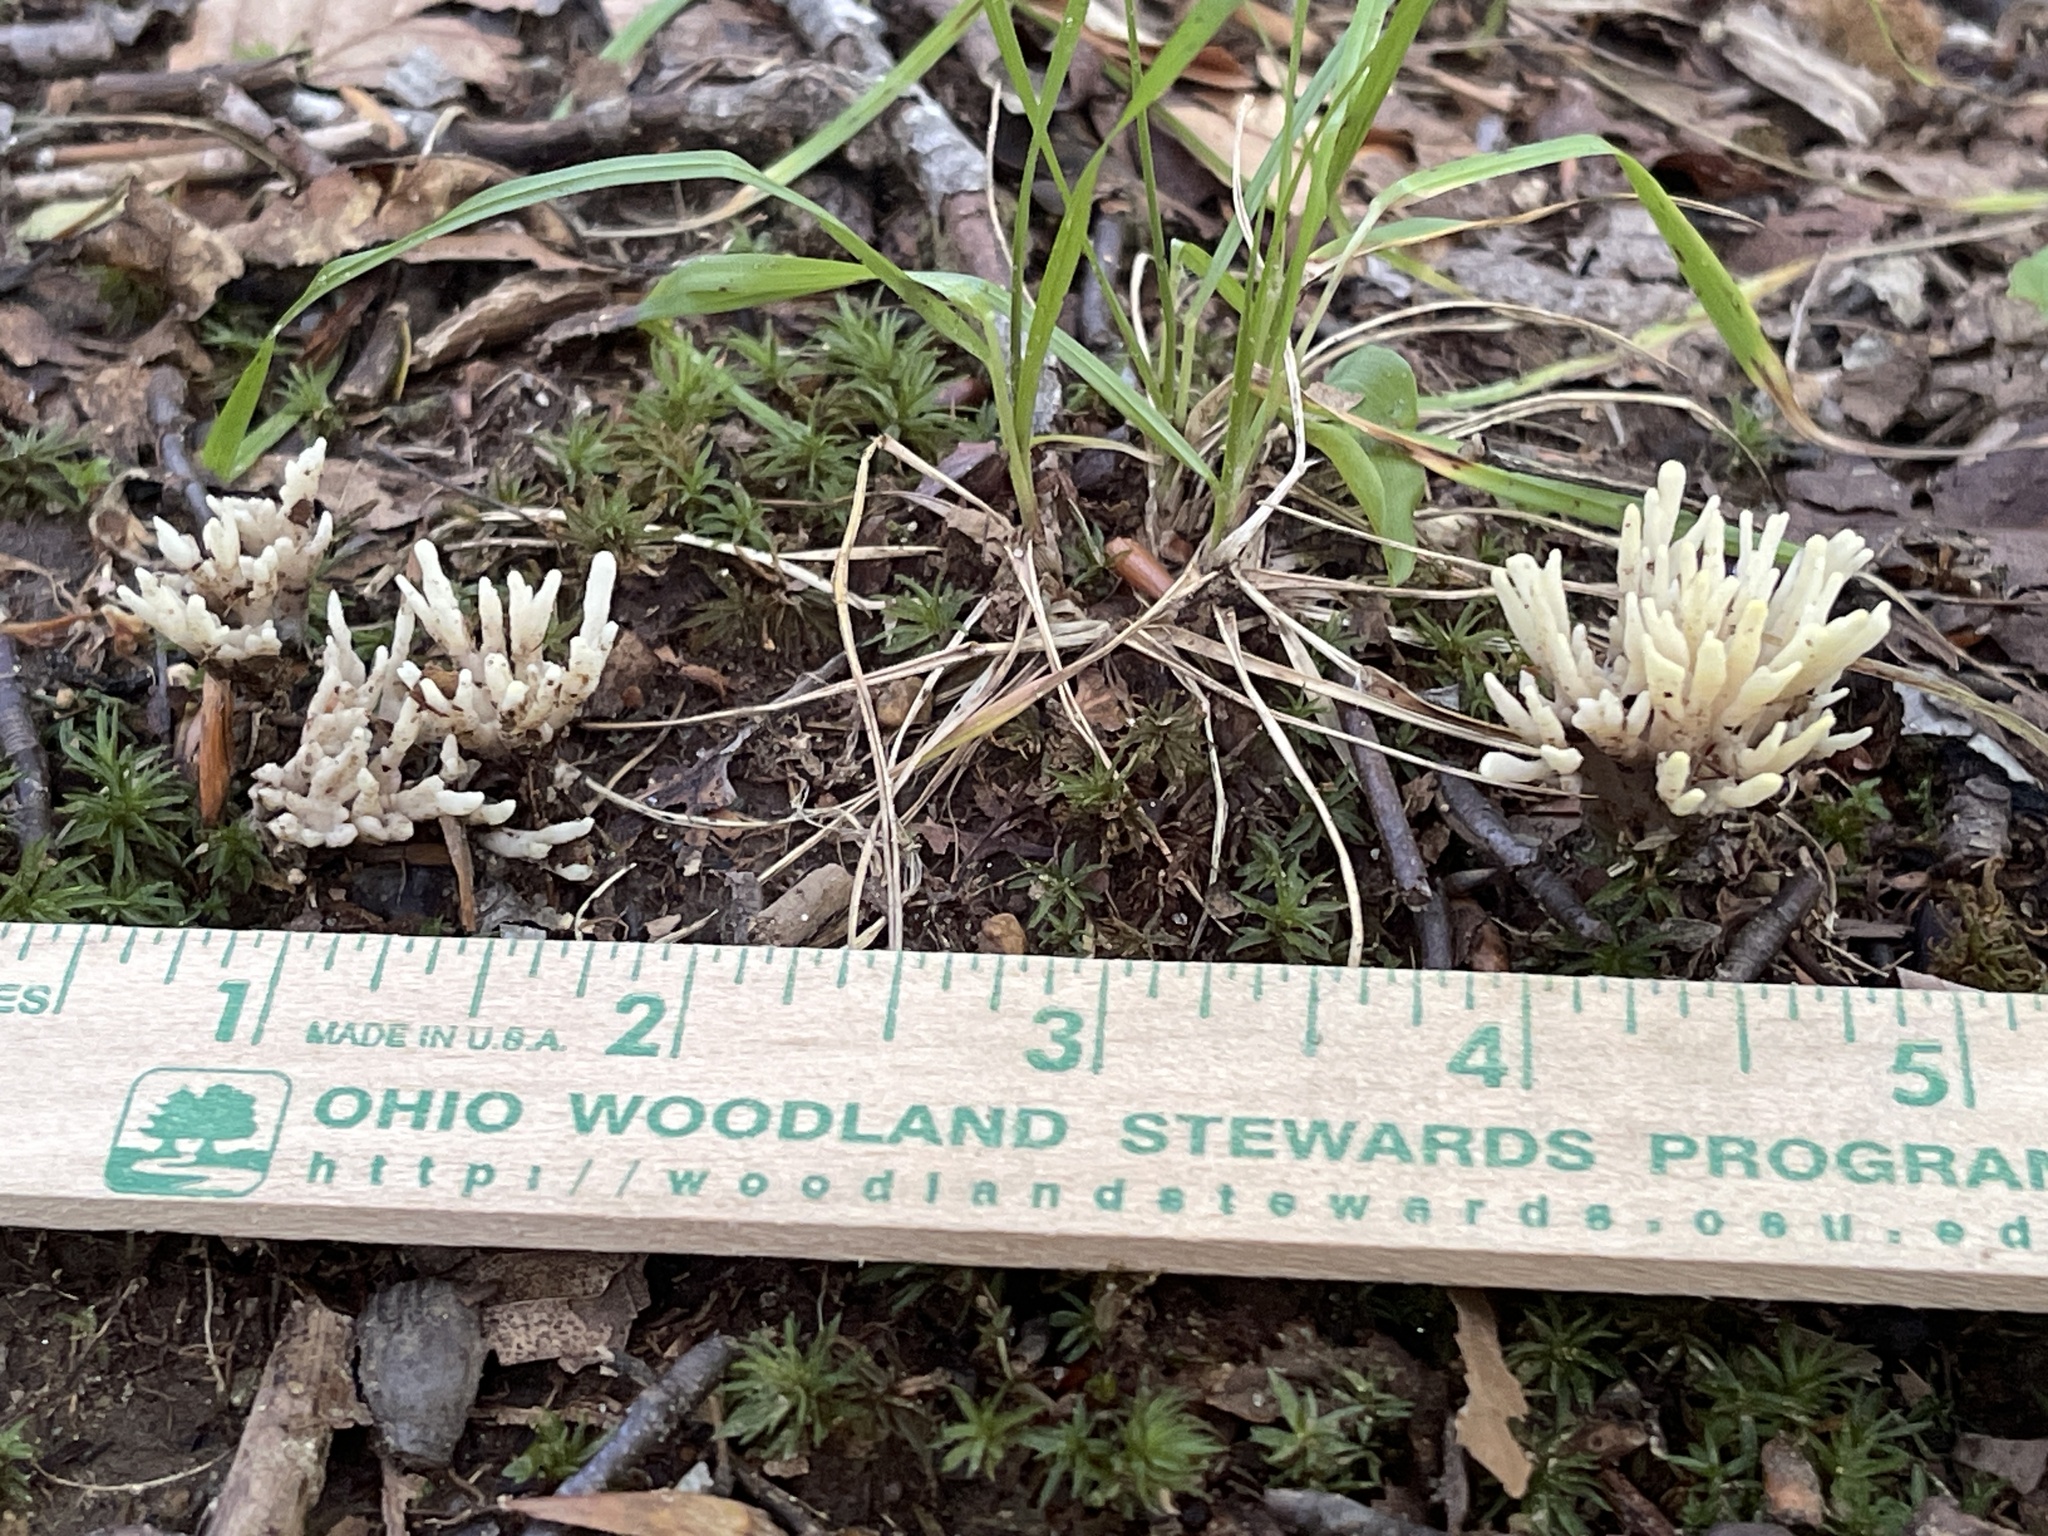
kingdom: Fungi
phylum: Basidiomycota
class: Agaricomycetes
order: Sebacinales
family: Sebacinaceae
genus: Tremellodendron
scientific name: Tremellodendron tenue
